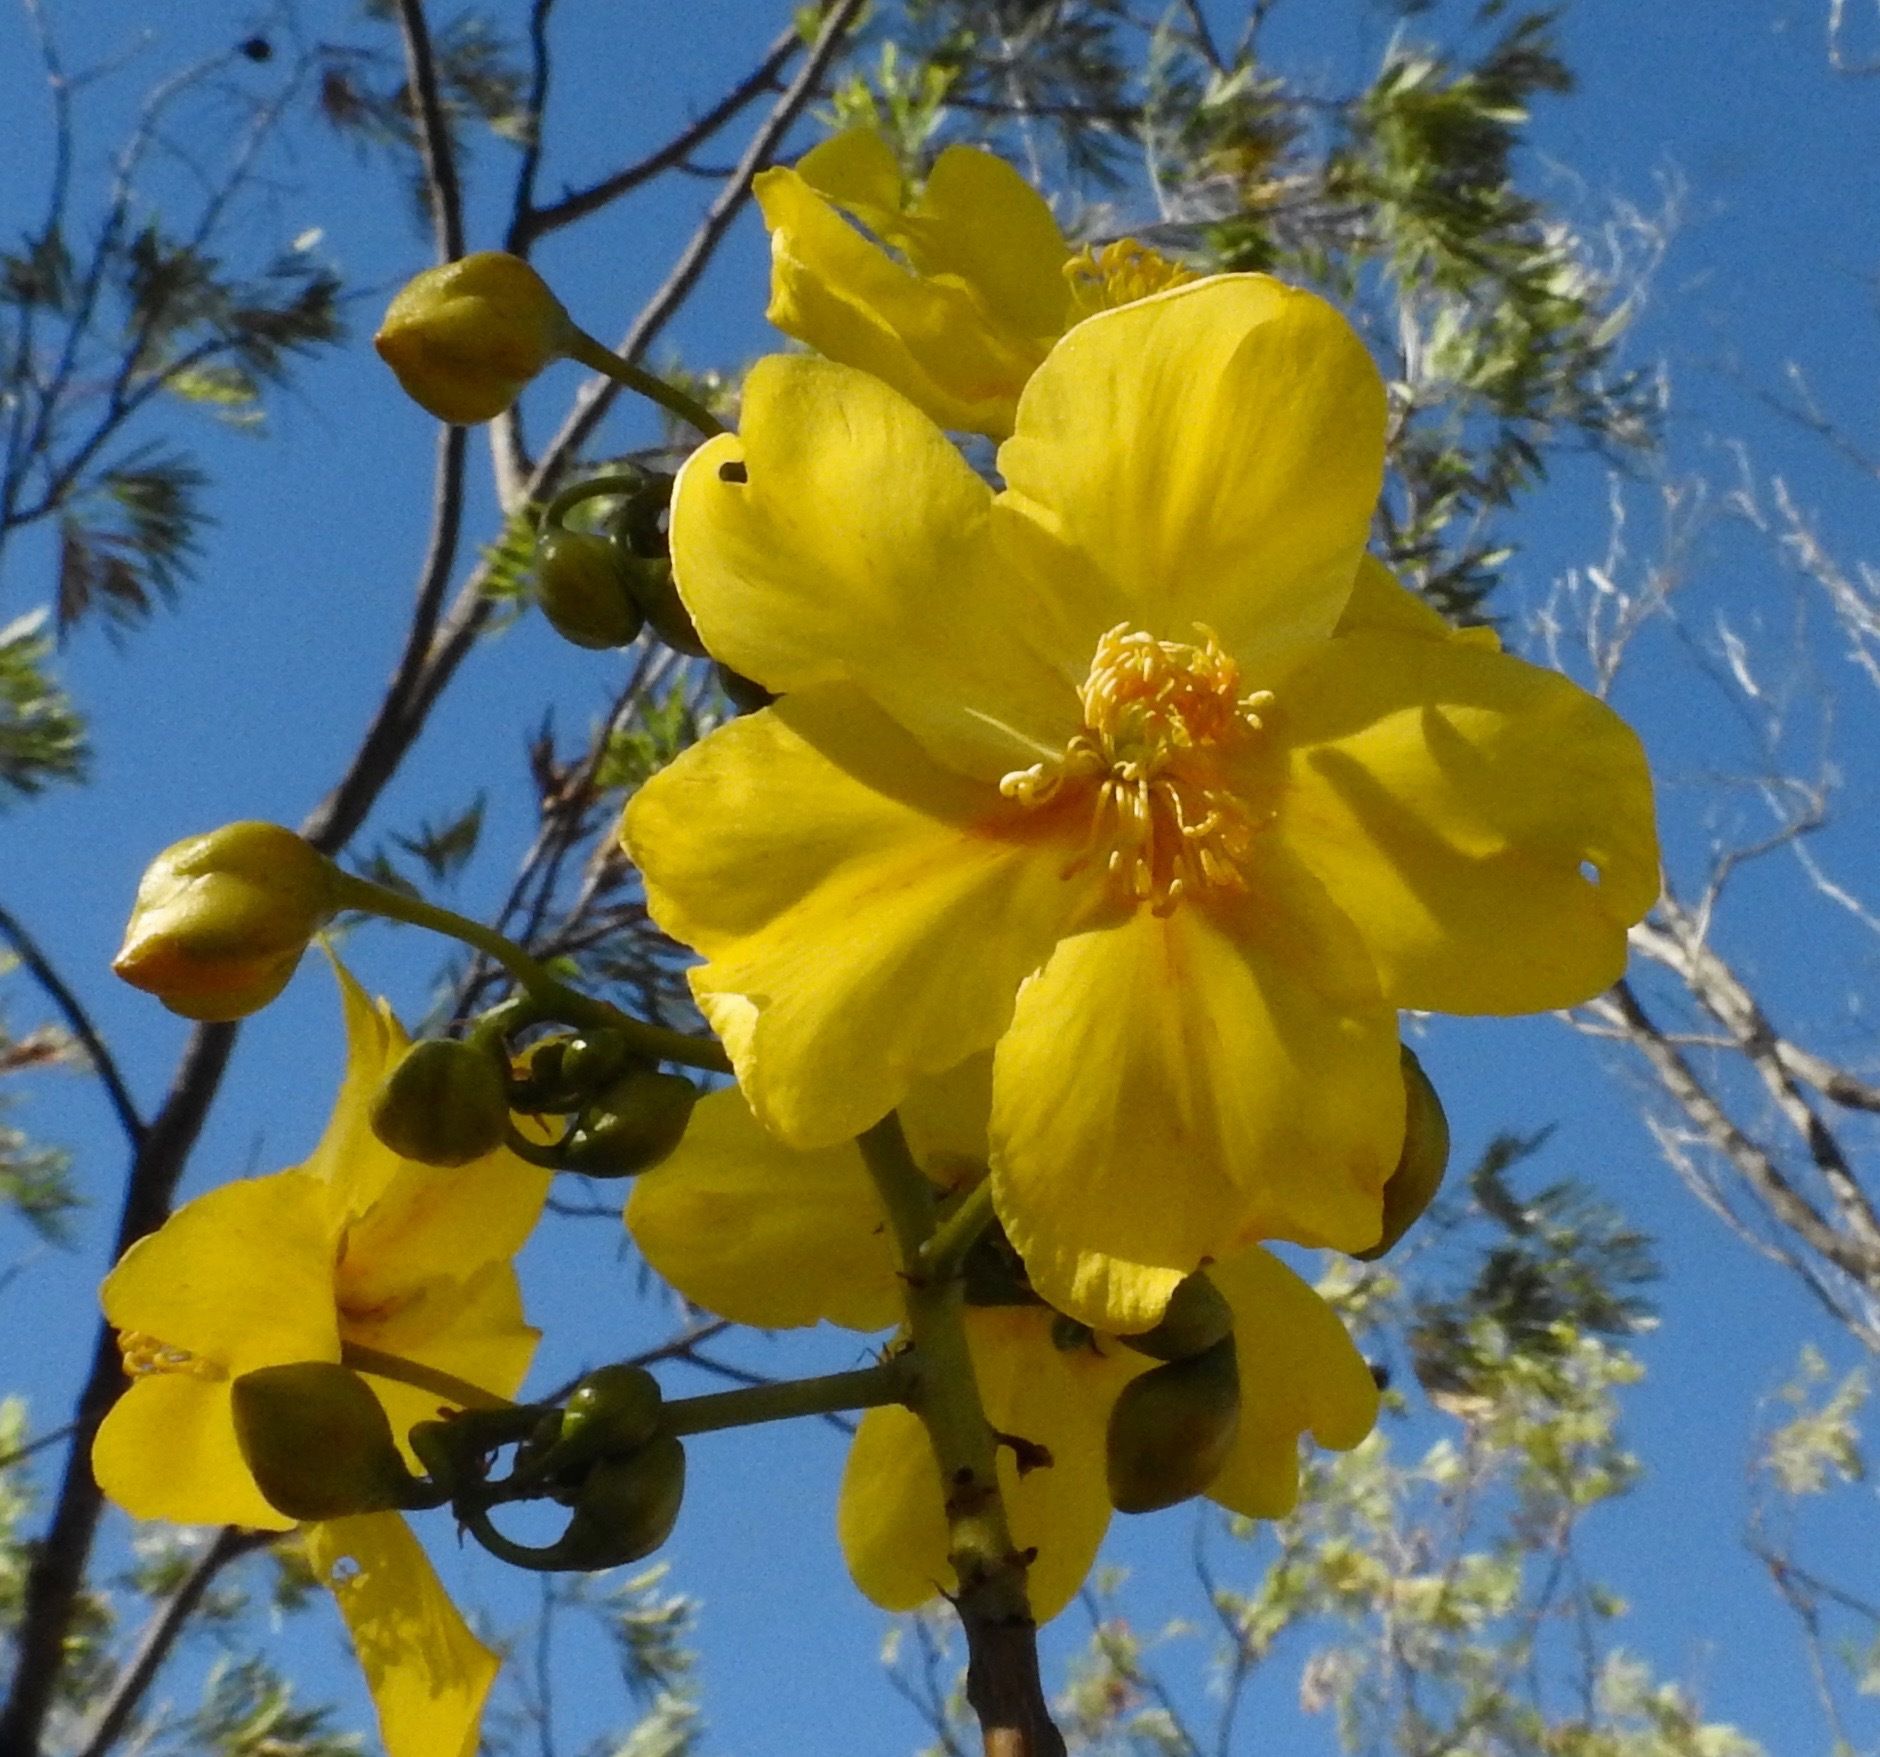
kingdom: Plantae
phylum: Tracheophyta
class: Magnoliopsida
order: Malvales
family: Cochlospermaceae
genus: Cochlospermum
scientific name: Cochlospermum fraseri
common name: Kapokbush
